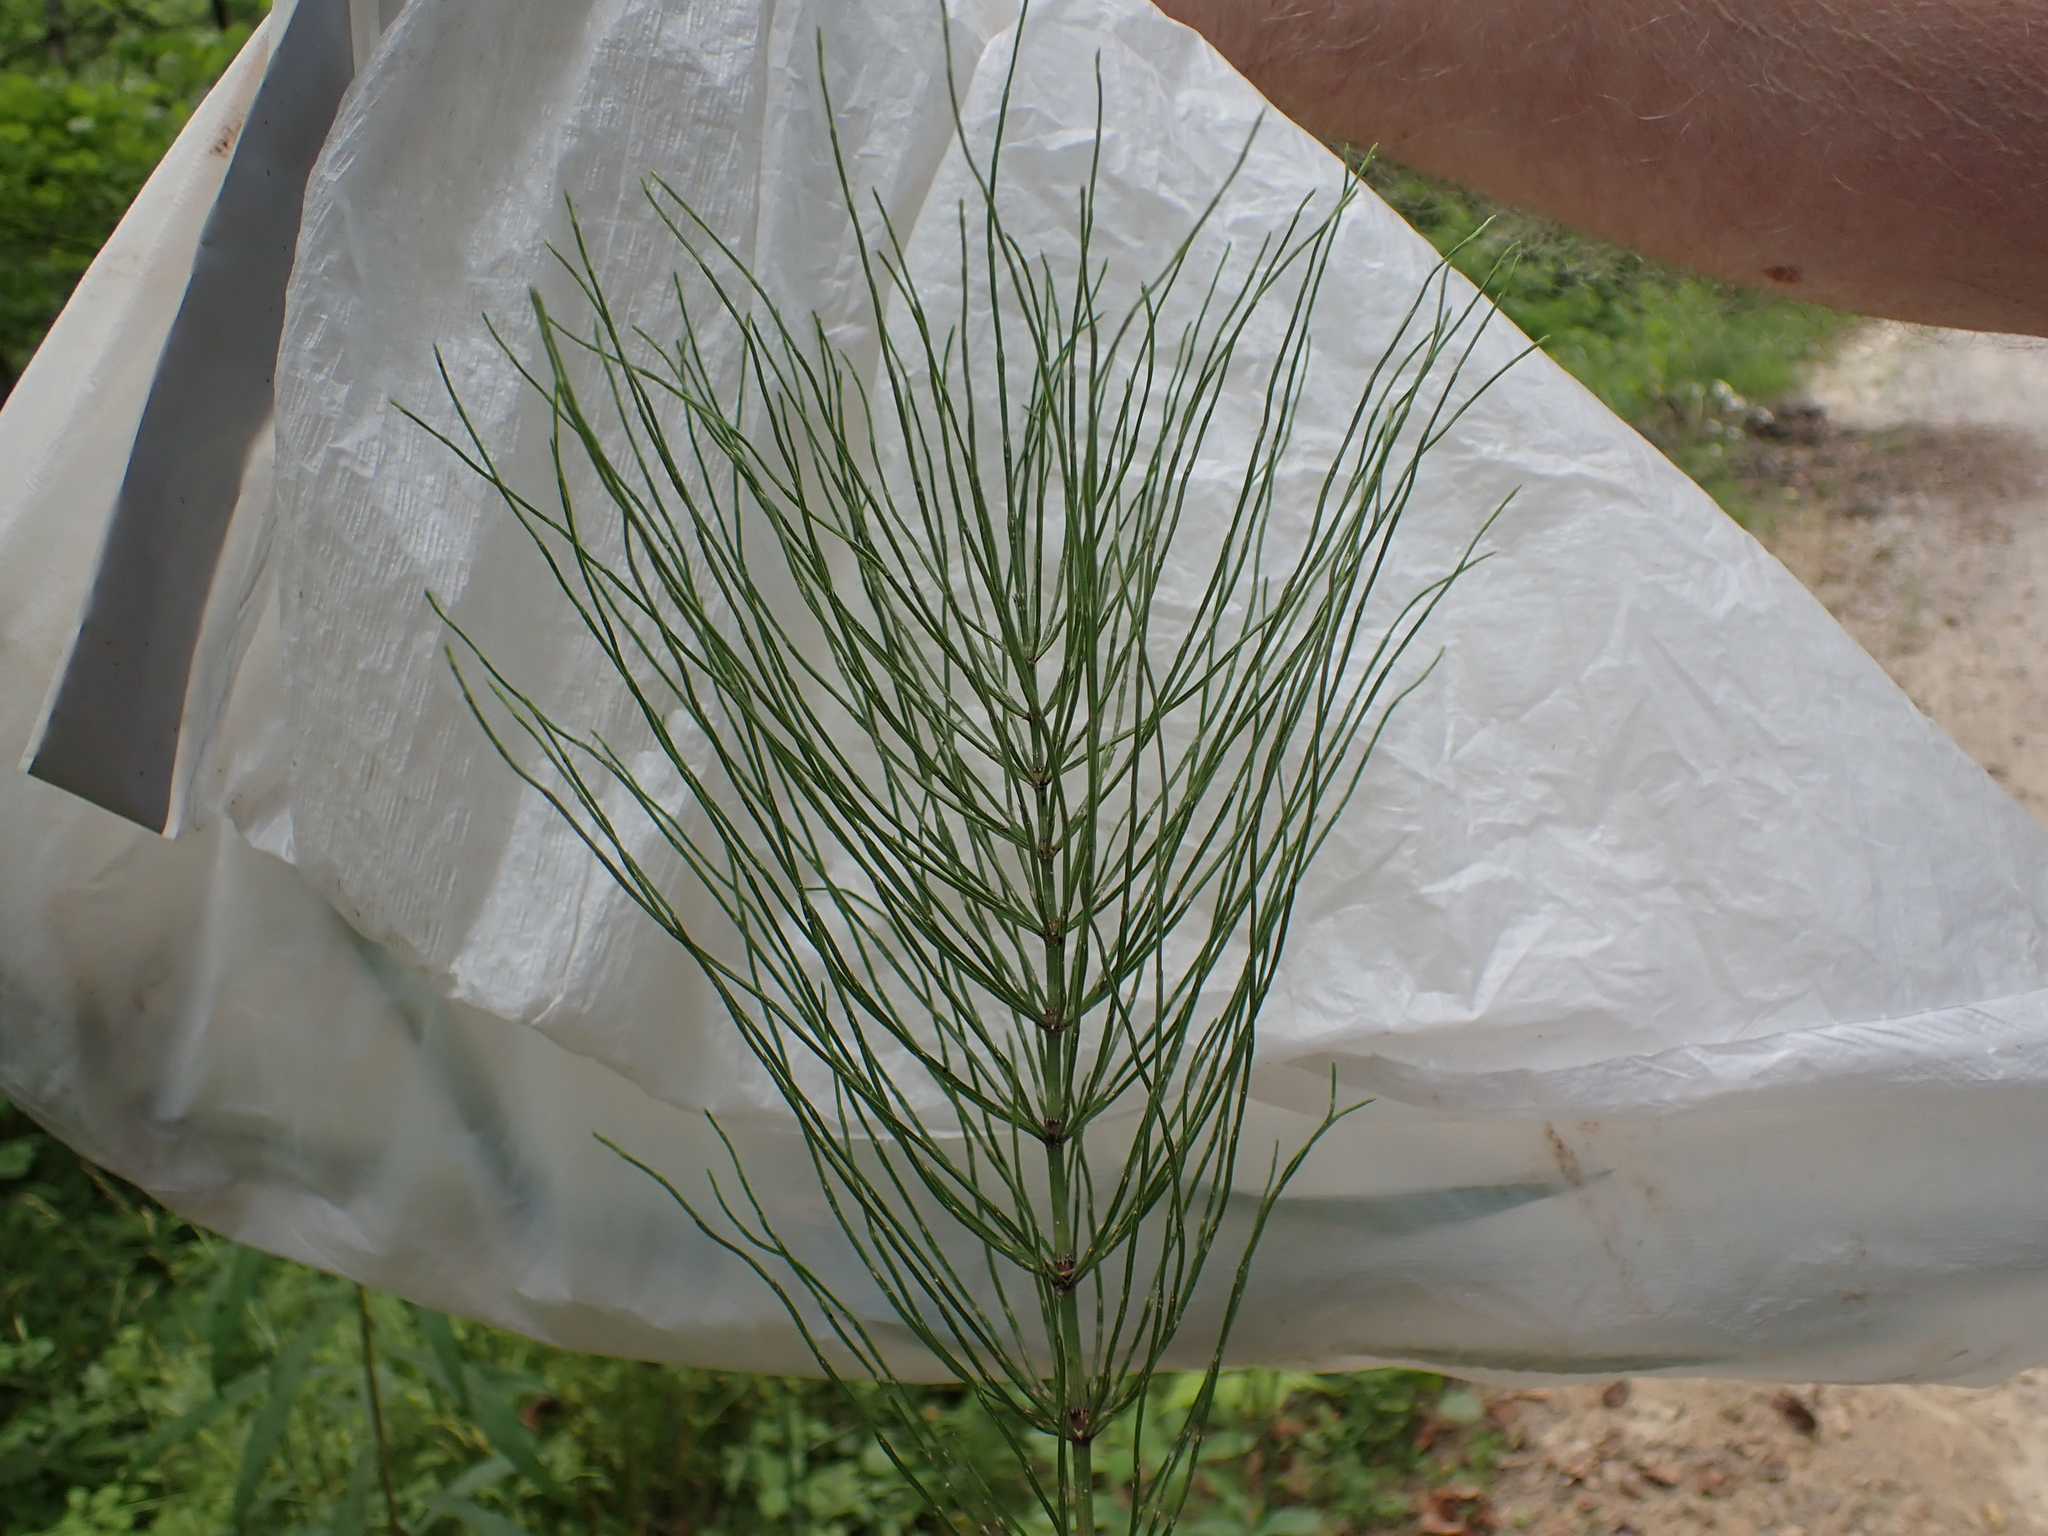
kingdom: Plantae
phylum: Tracheophyta
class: Polypodiopsida
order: Equisetales
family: Equisetaceae
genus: Equisetum
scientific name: Equisetum arvense
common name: Field horsetail
